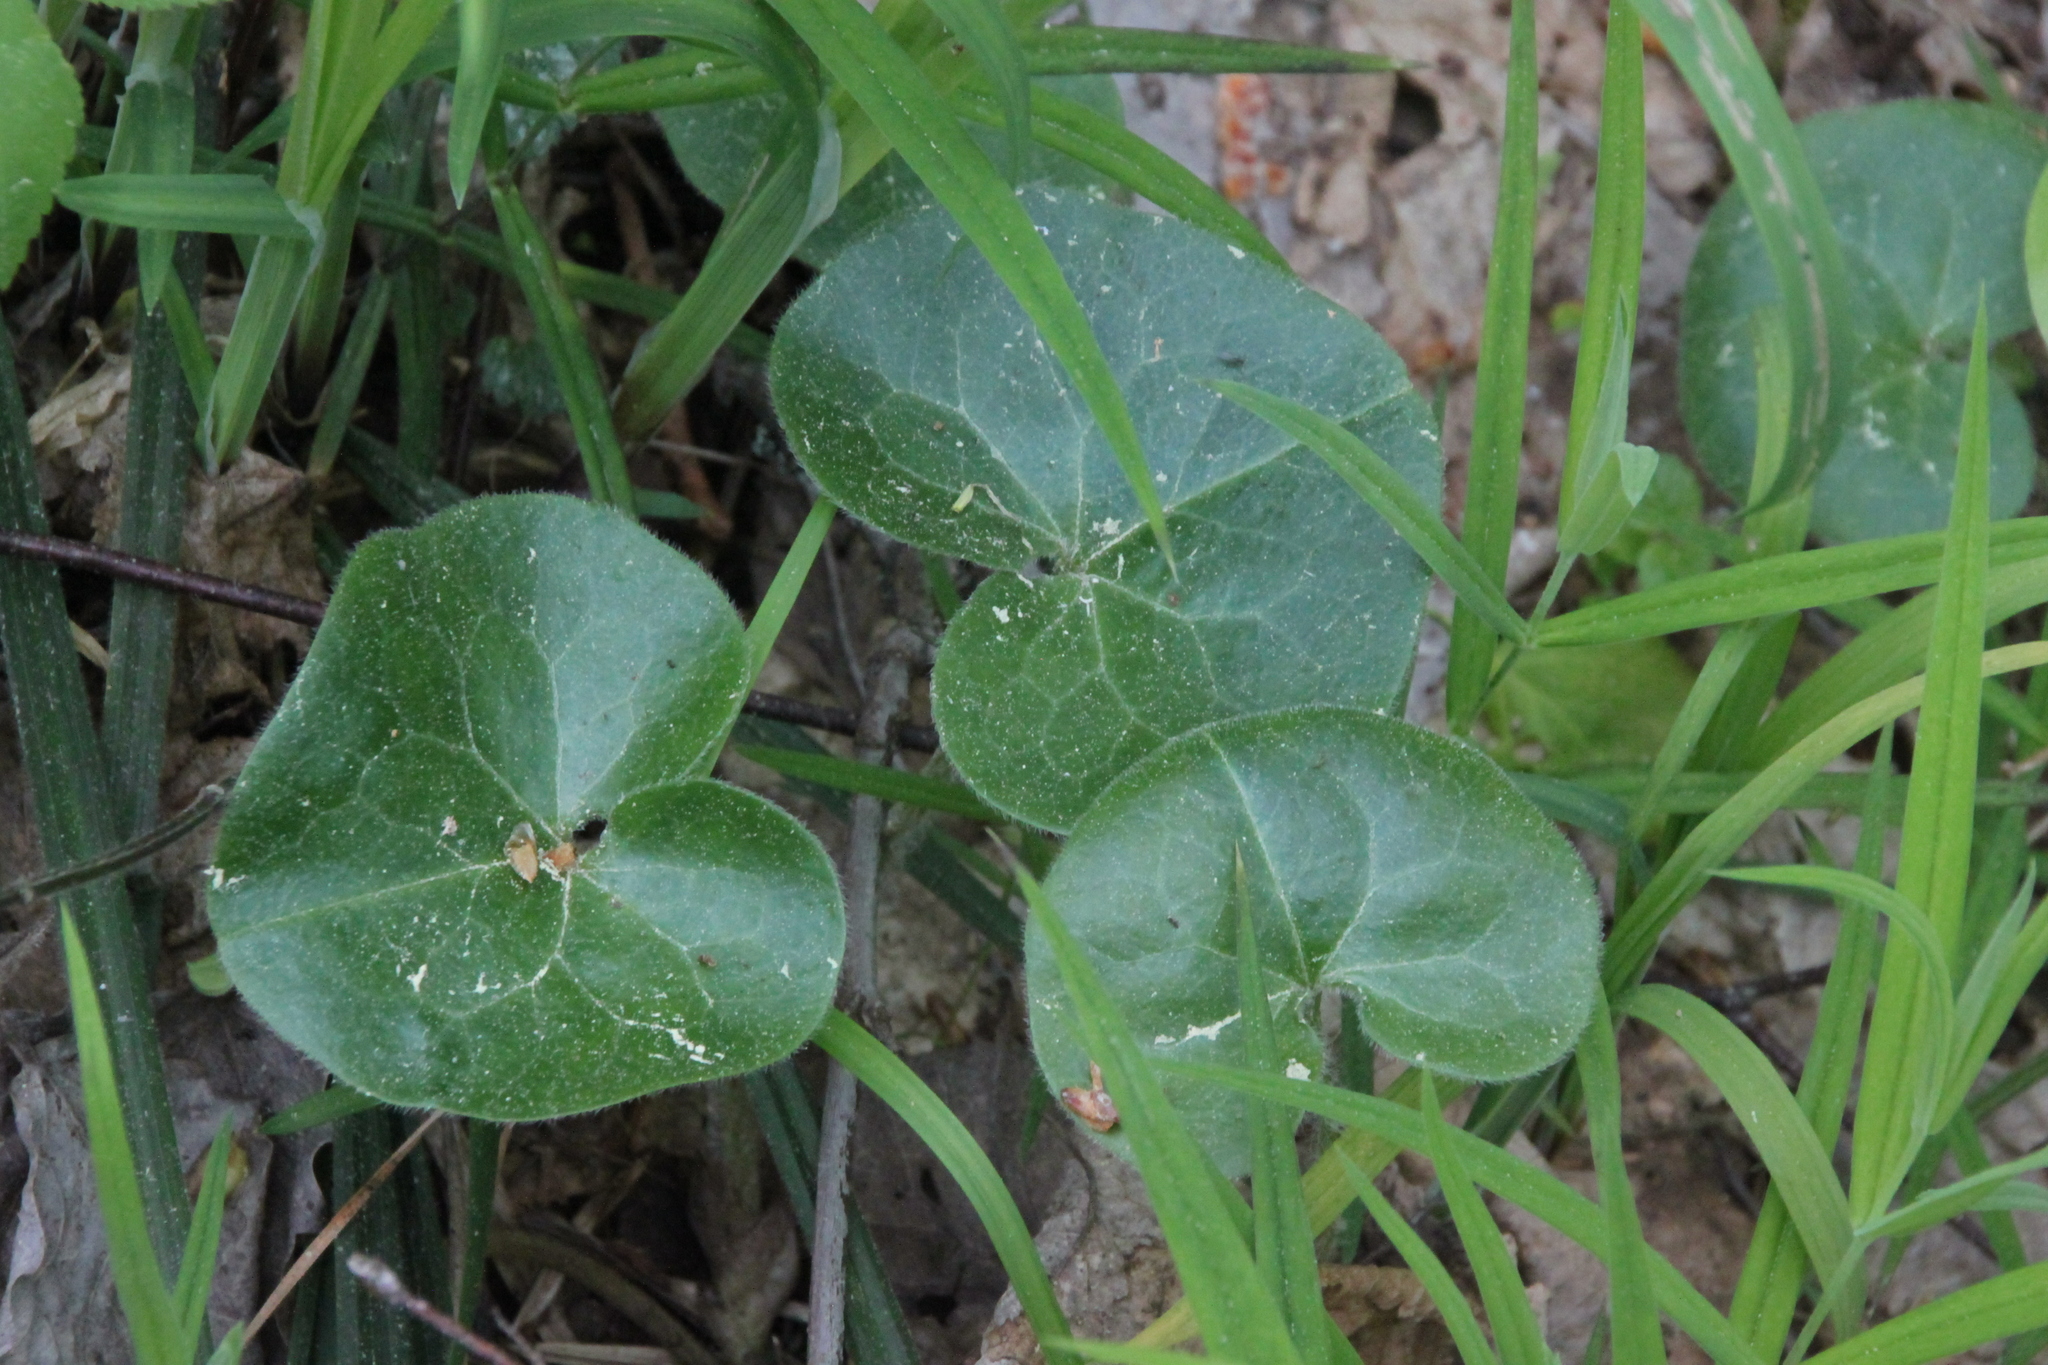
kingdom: Plantae
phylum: Tracheophyta
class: Magnoliopsida
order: Piperales
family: Aristolochiaceae
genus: Asarum
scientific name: Asarum europaeum
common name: Asarabacca
